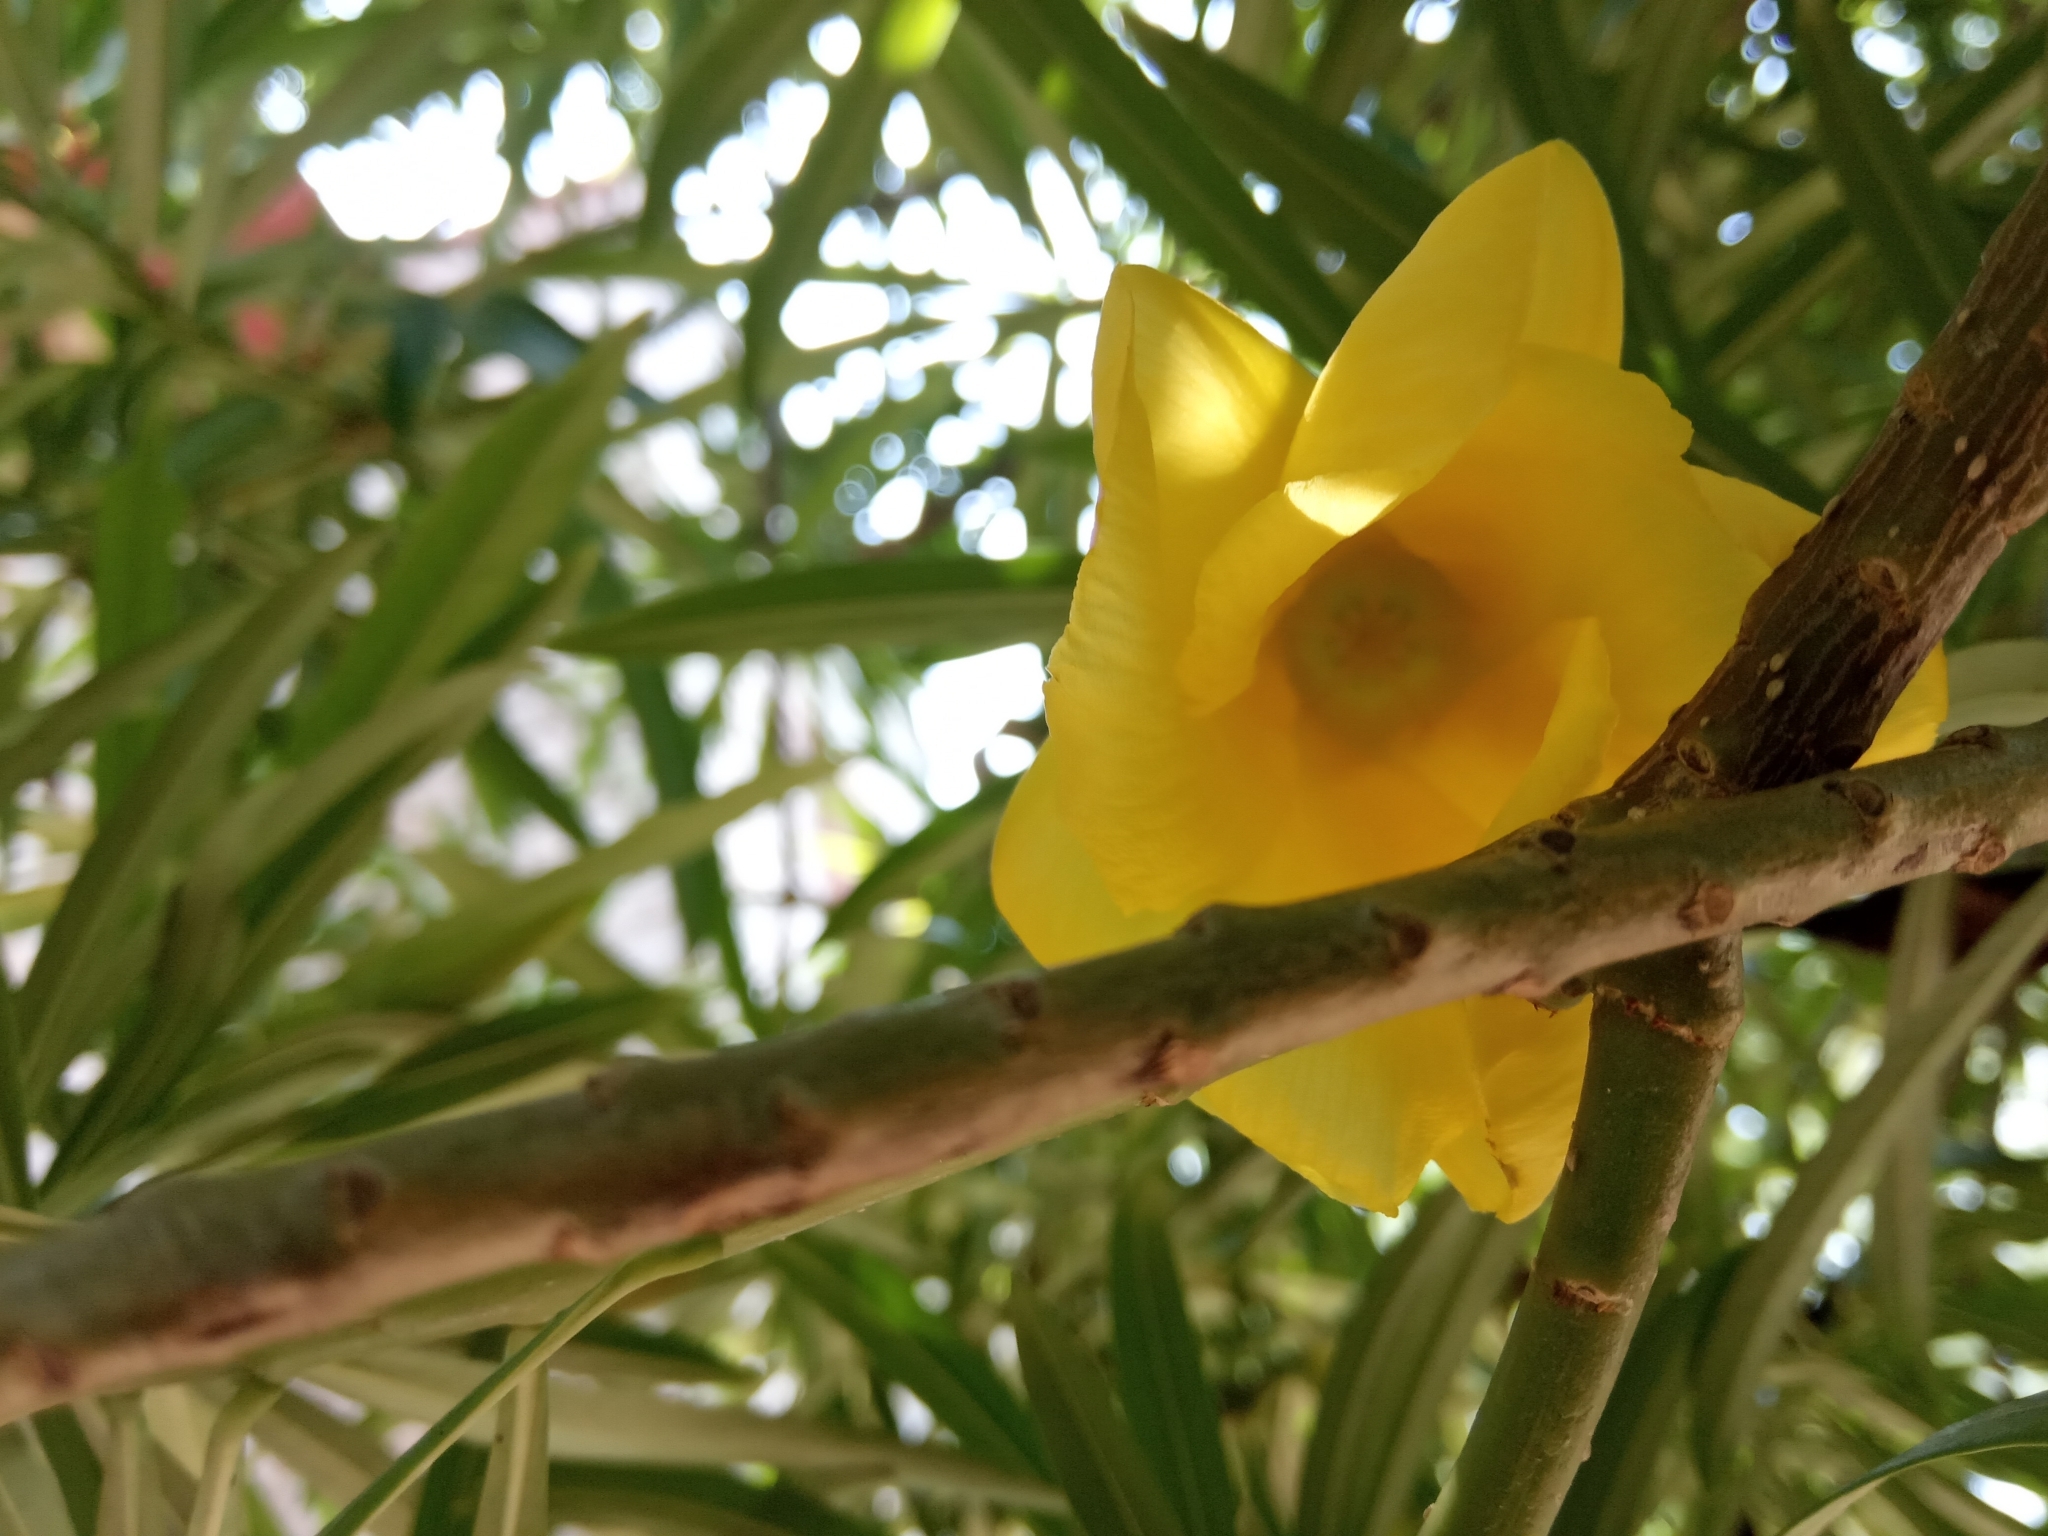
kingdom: Plantae
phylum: Tracheophyta
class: Magnoliopsida
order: Gentianales
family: Apocynaceae
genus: Cascabela
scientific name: Cascabela thevetia
